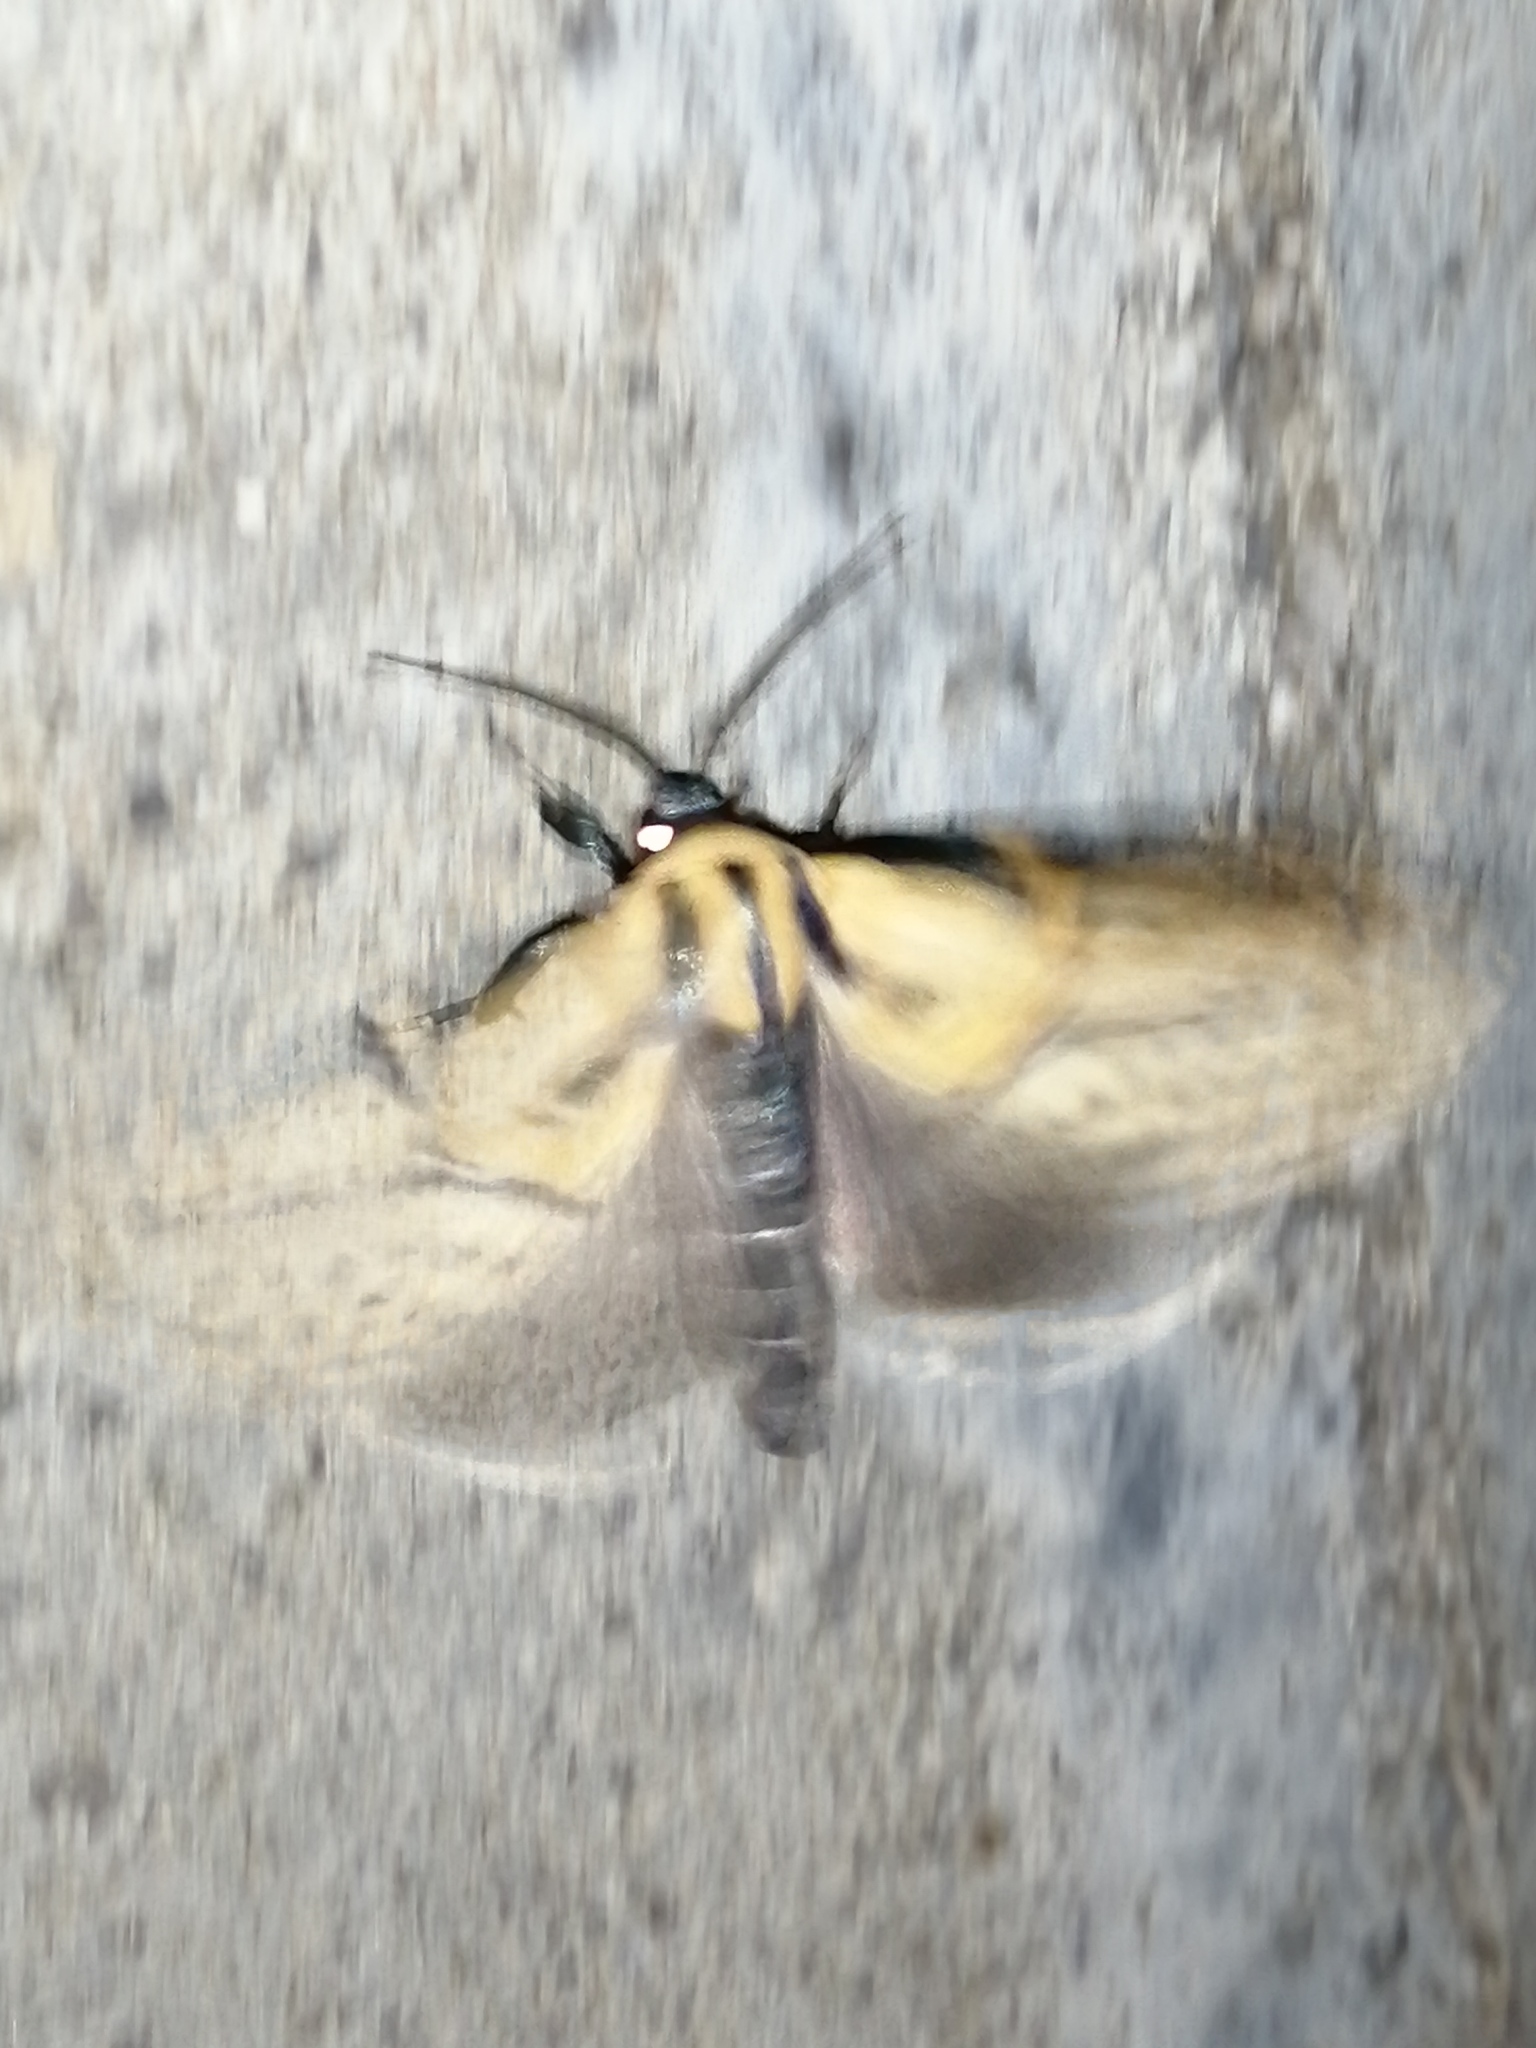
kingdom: Animalia
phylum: Arthropoda
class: Insecta
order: Lepidoptera
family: Erebidae
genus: Diphthera
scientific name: Diphthera festiva
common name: Hieroglyphic moth
